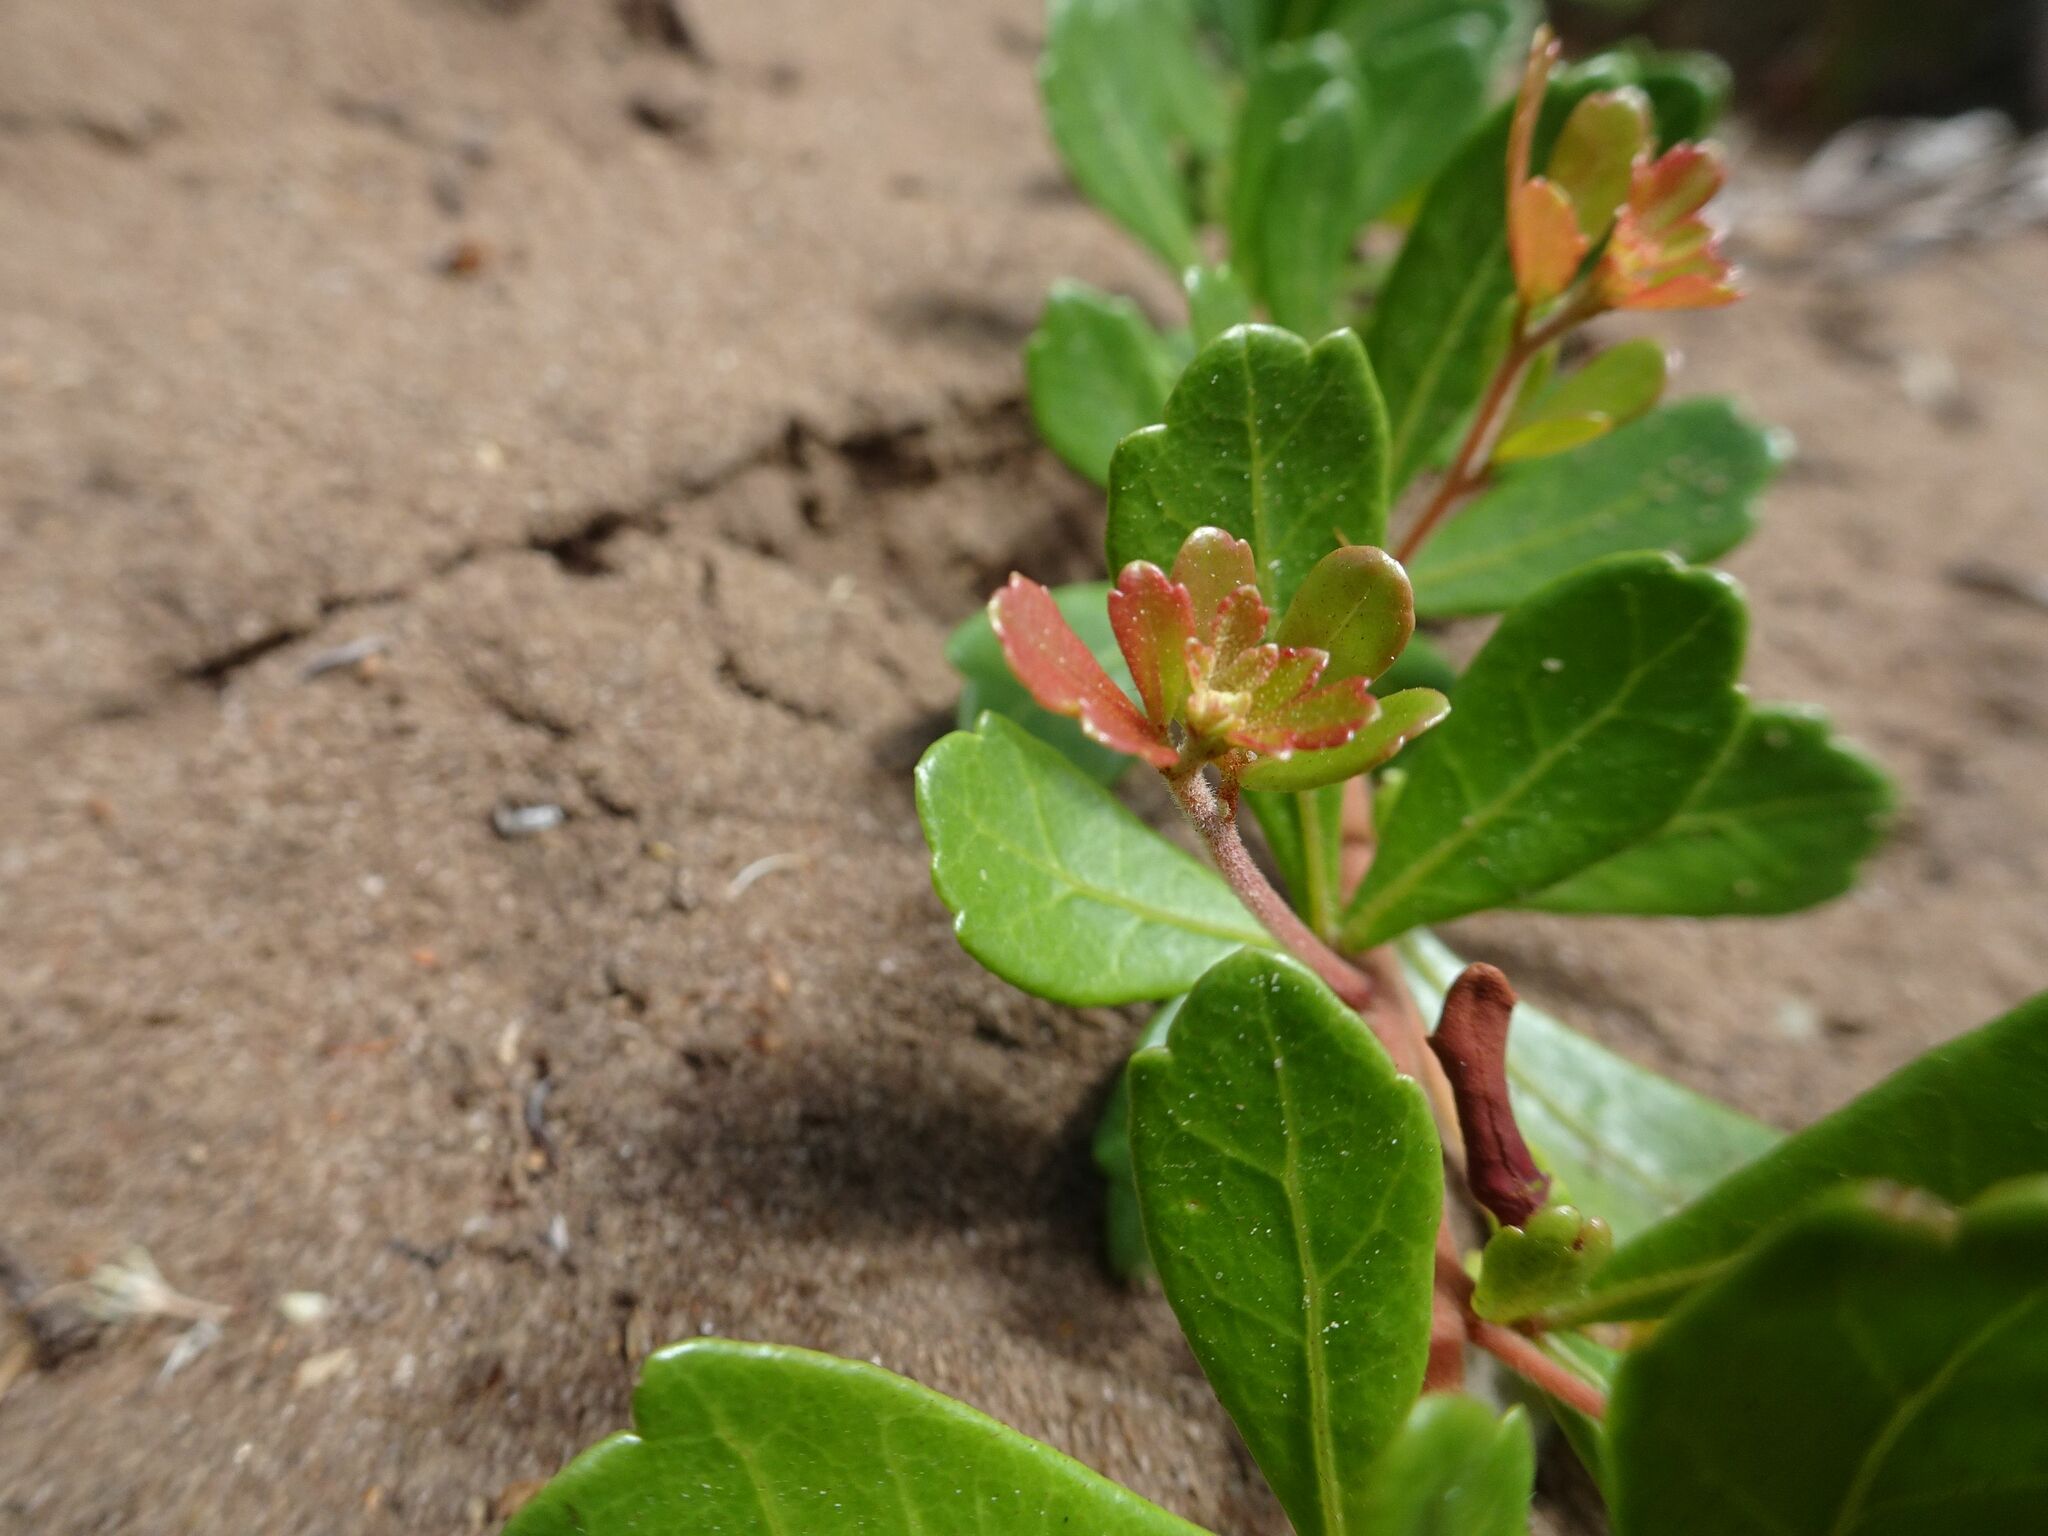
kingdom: Plantae
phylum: Tracheophyta
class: Magnoliopsida
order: Sapindales
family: Anacardiaceae
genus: Searsia
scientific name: Searsia crenata
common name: Crowberry
